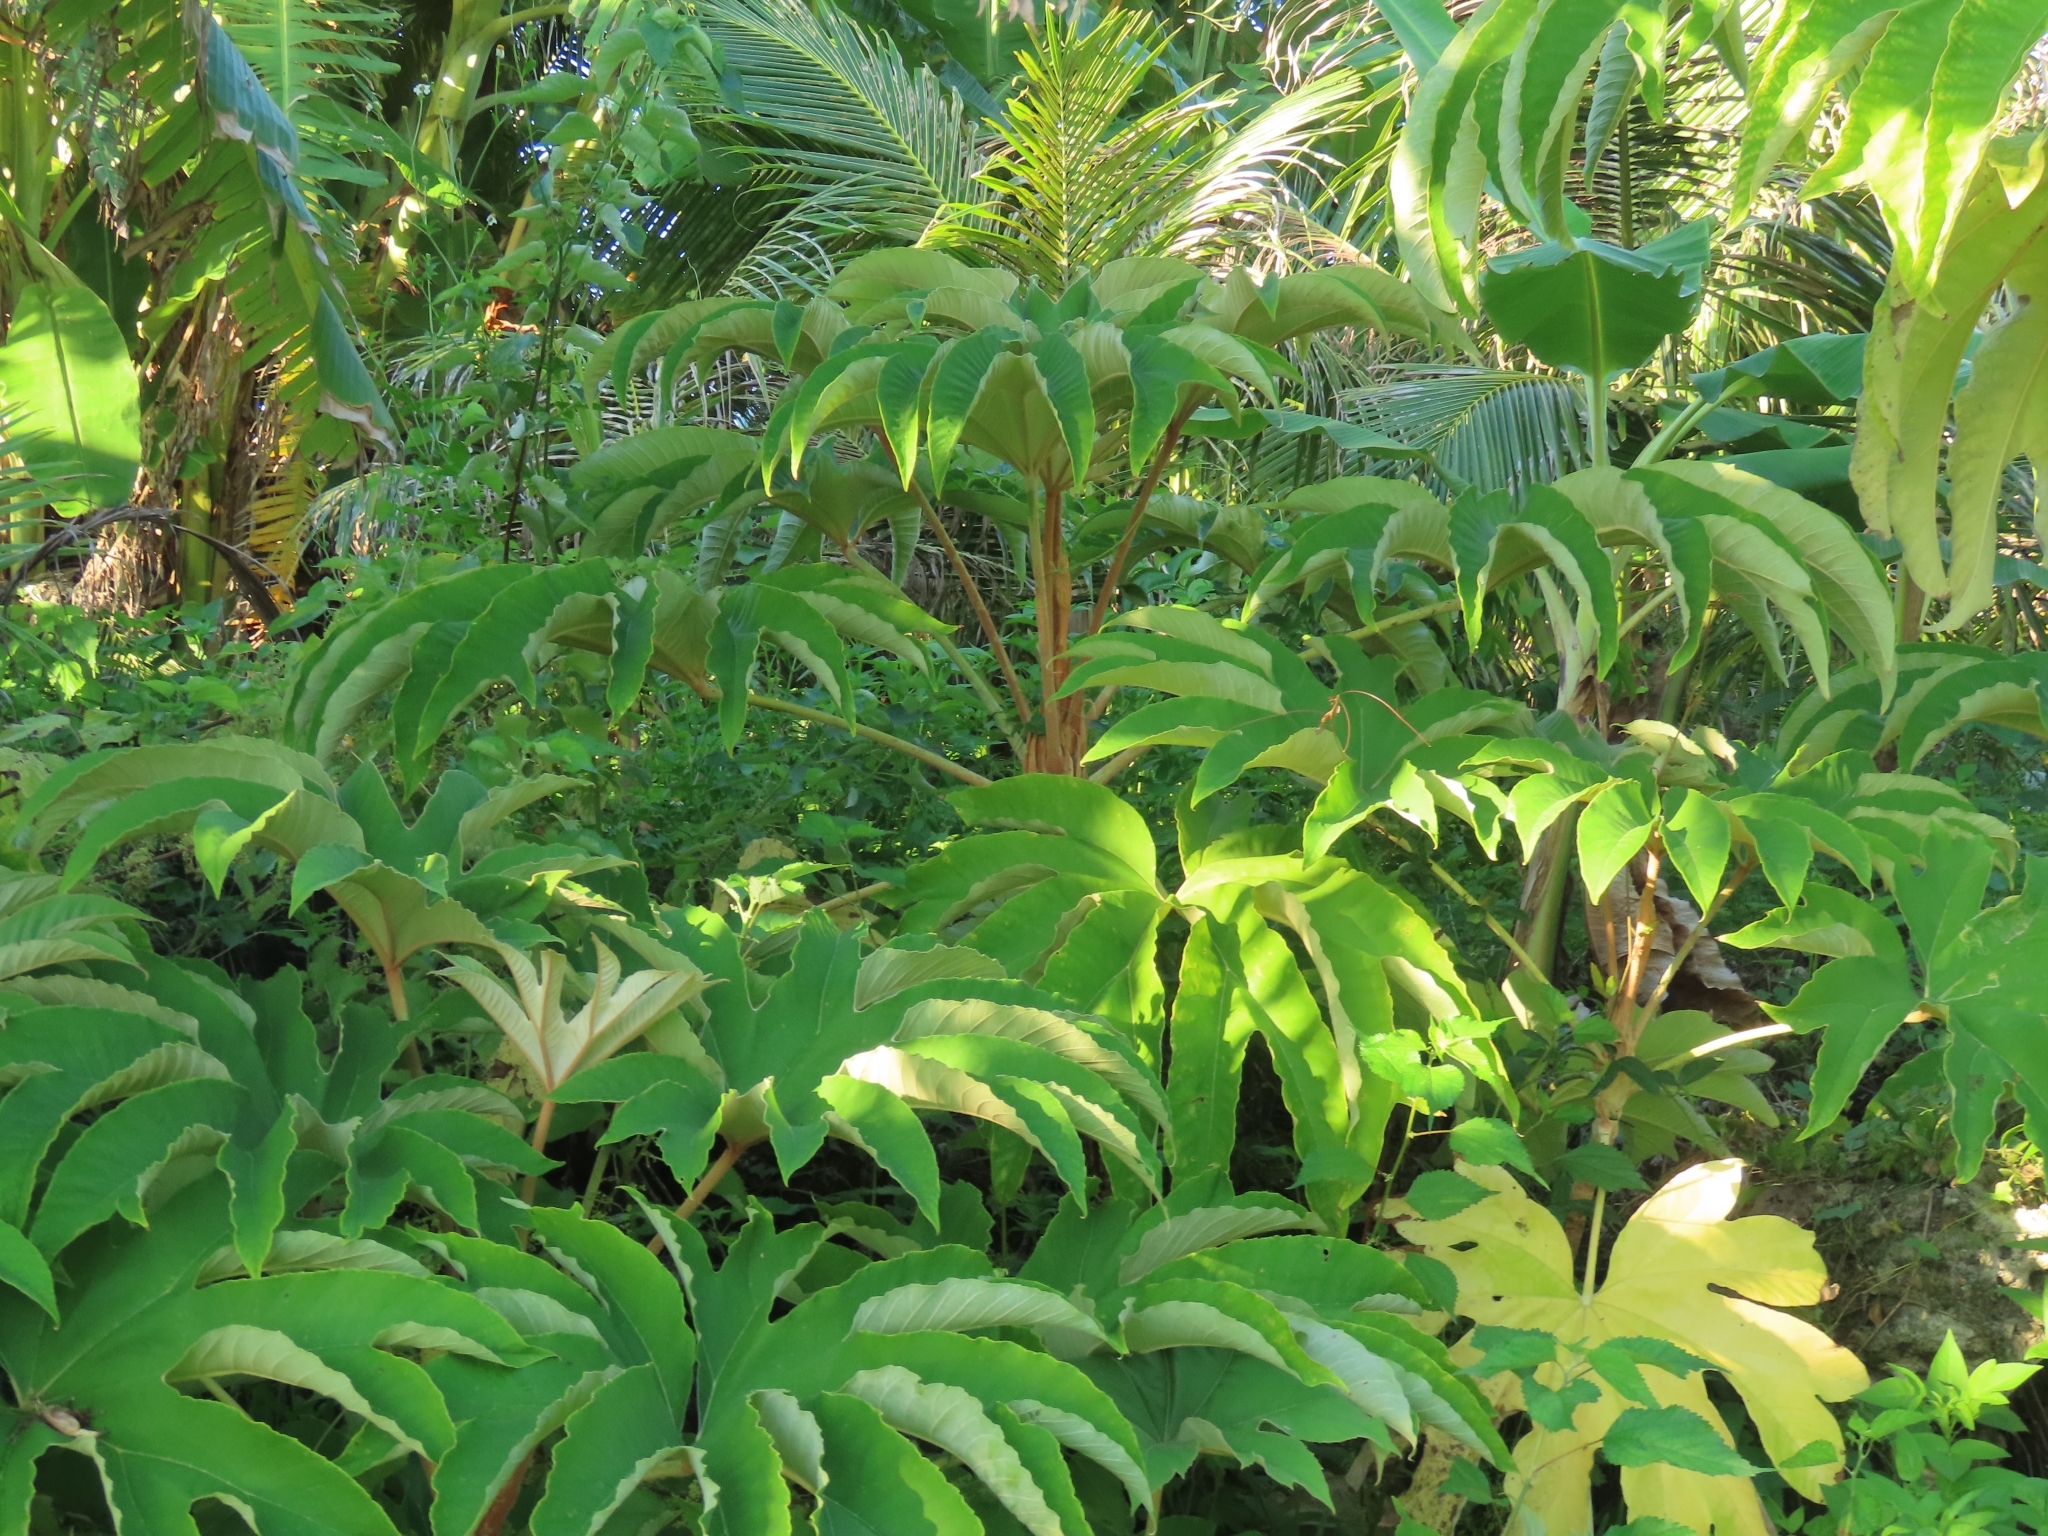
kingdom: Plantae
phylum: Tracheophyta
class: Magnoliopsida
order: Apiales
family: Araliaceae
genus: Tetrapanax
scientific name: Tetrapanax papyrifer
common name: Rice-paper plant
